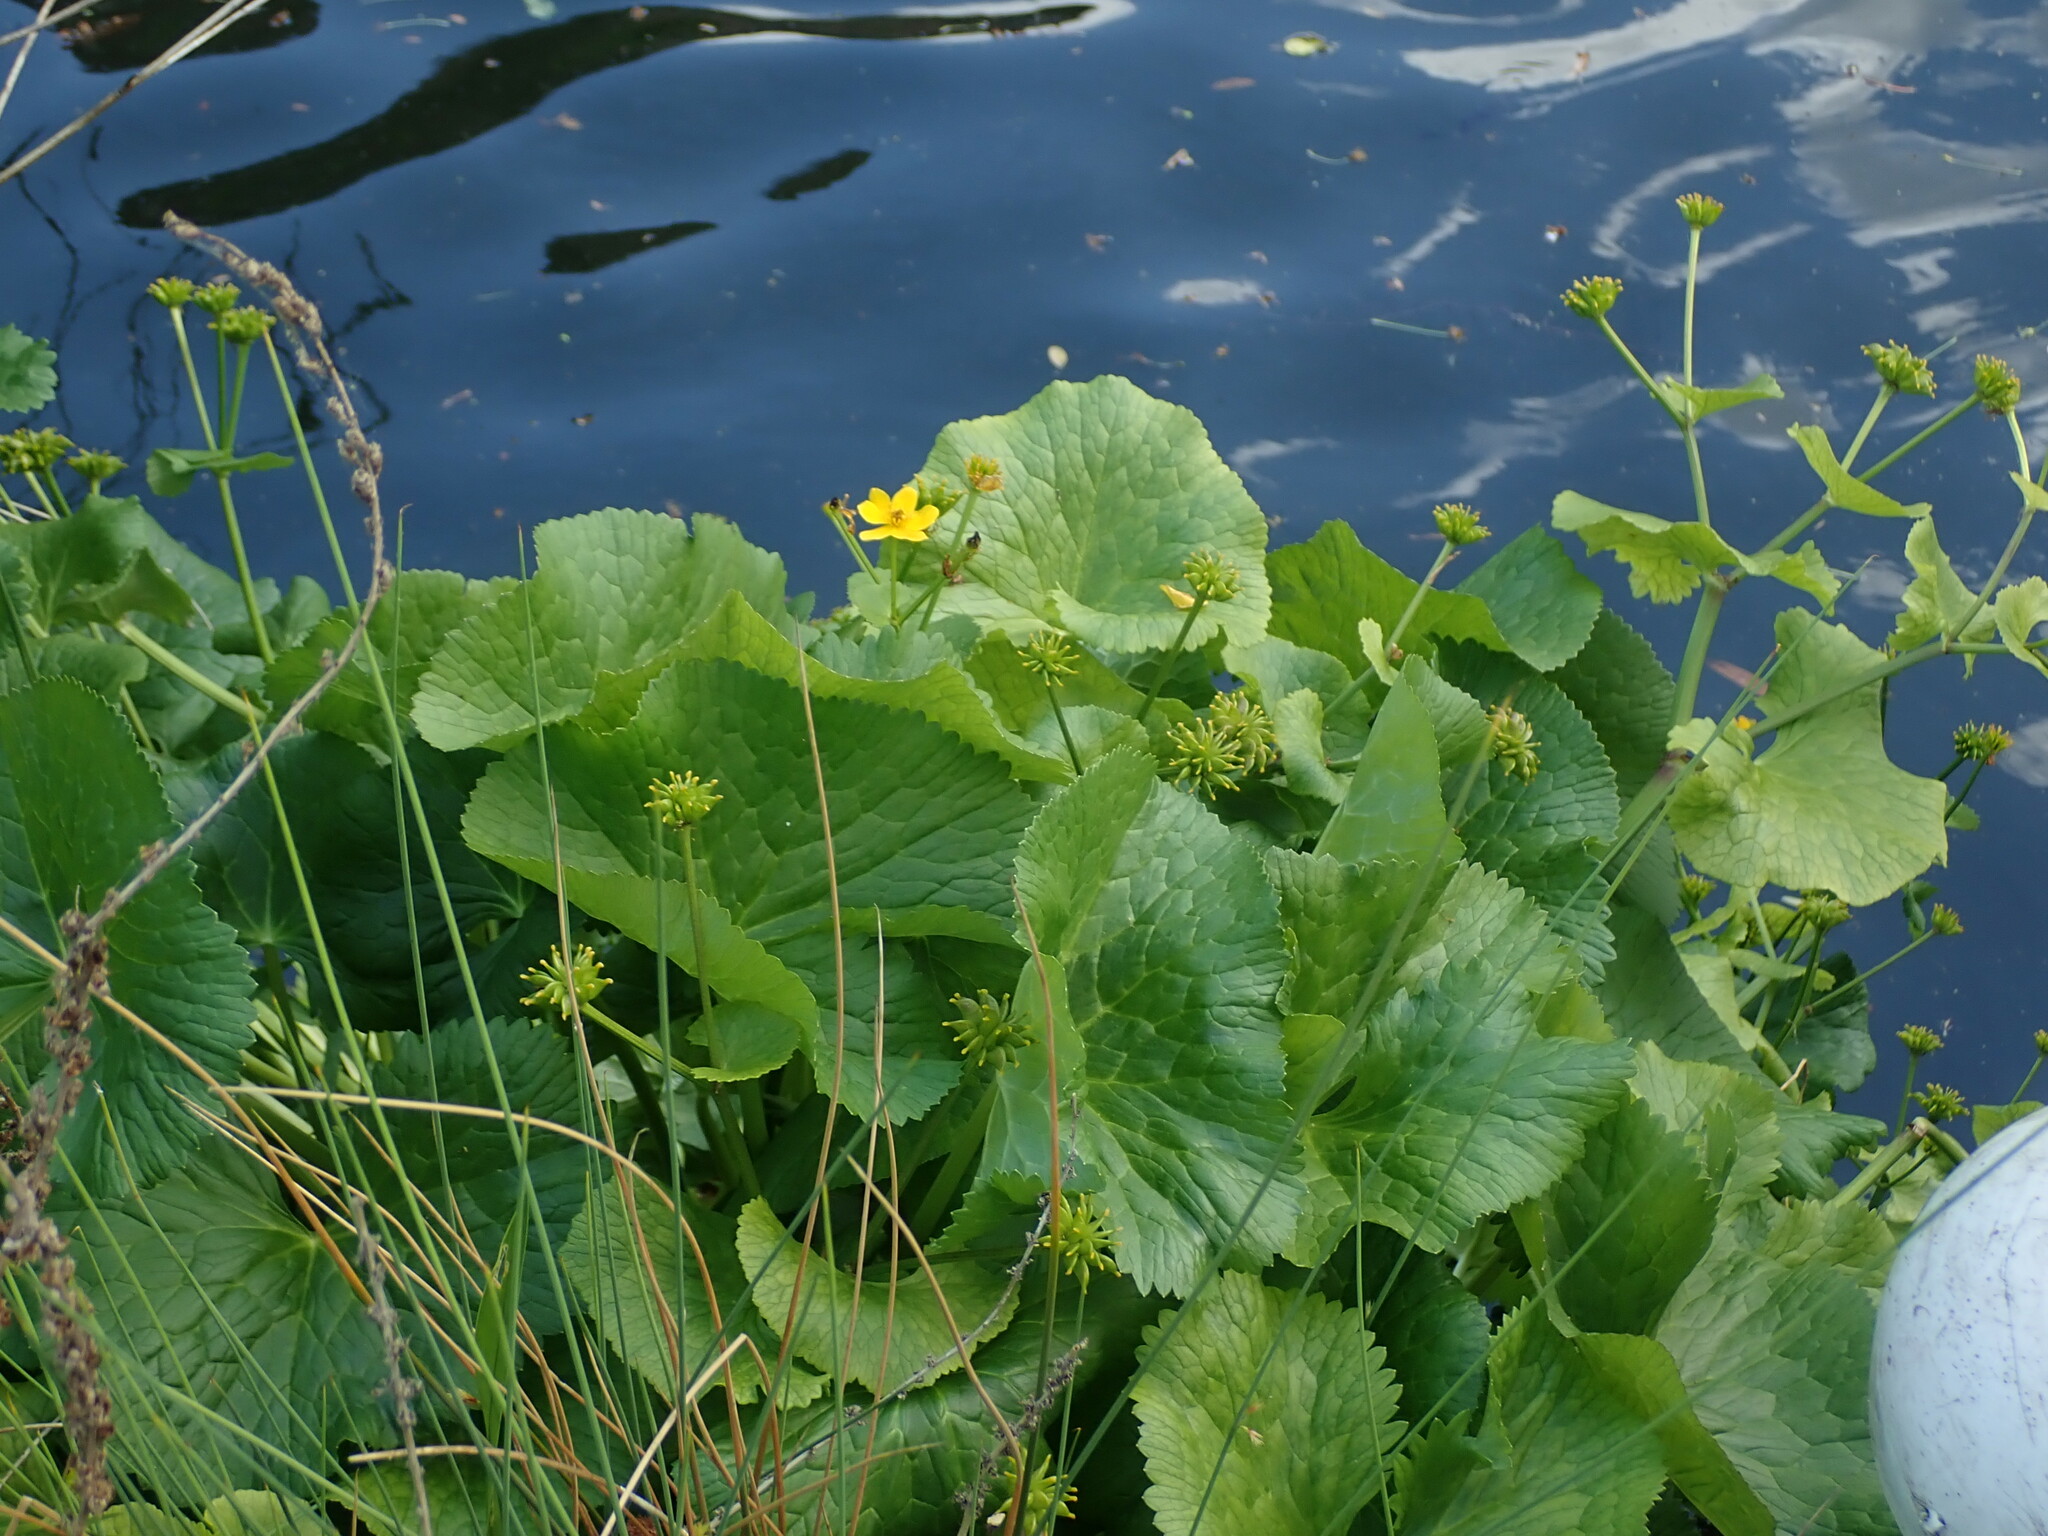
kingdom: Plantae
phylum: Tracheophyta
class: Magnoliopsida
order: Ranunculales
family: Ranunculaceae
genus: Caltha
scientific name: Caltha palustris
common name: Marsh marigold
